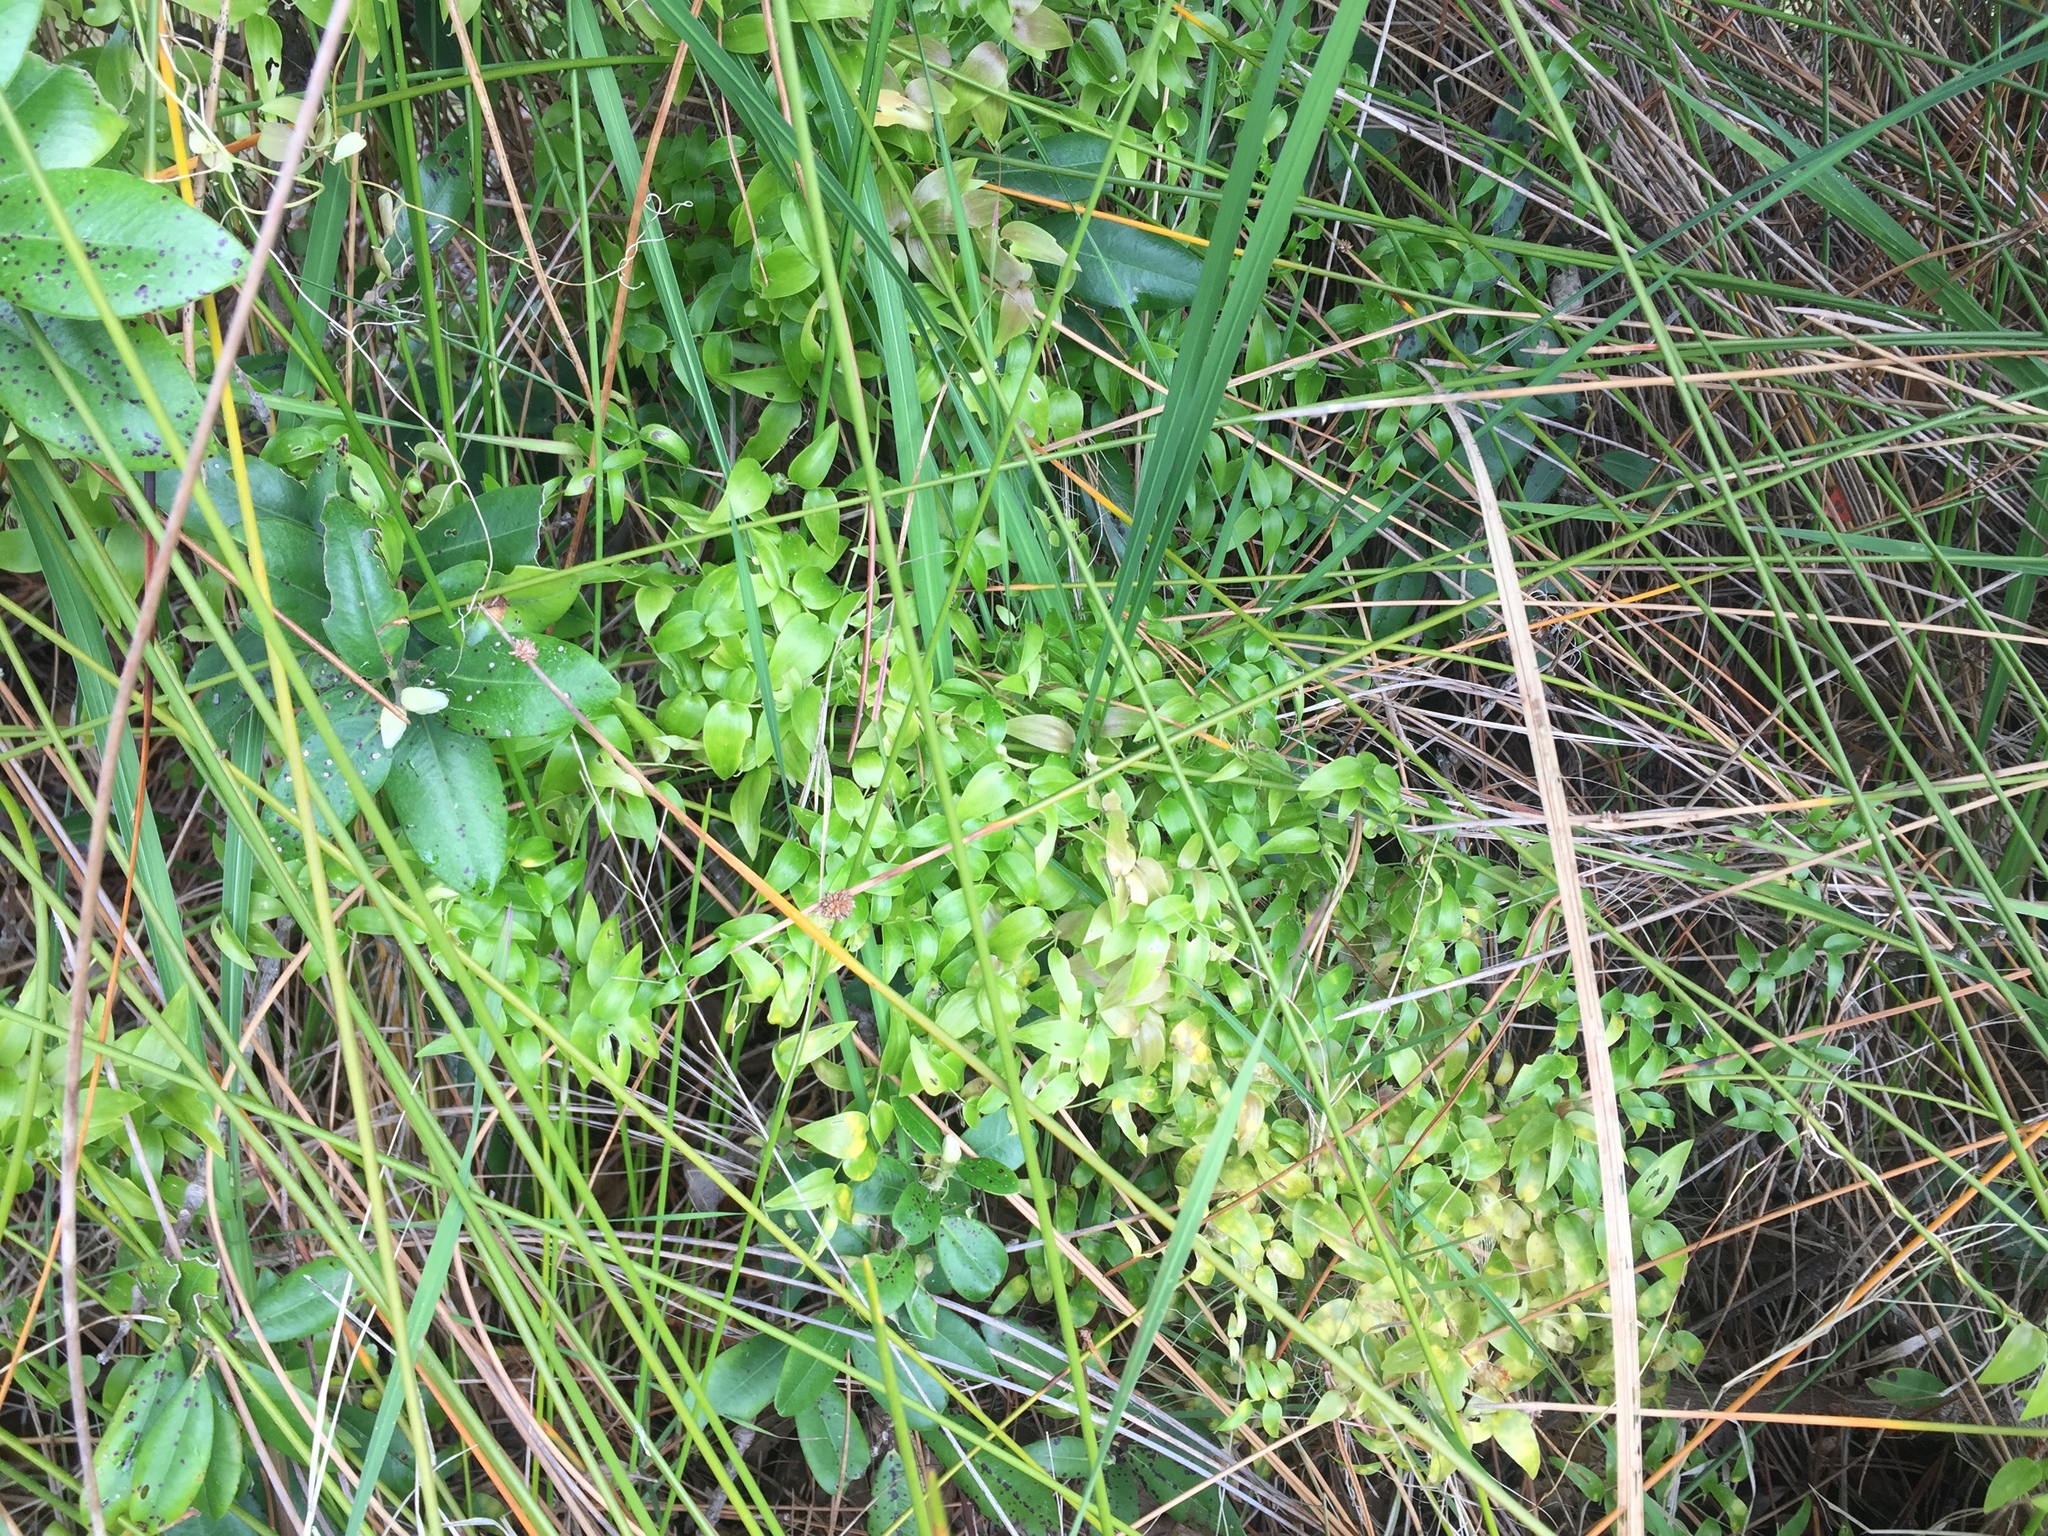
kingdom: Plantae
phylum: Tracheophyta
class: Liliopsida
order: Asparagales
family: Asparagaceae
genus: Asparagus
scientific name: Asparagus asparagoides
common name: African asparagus fern
